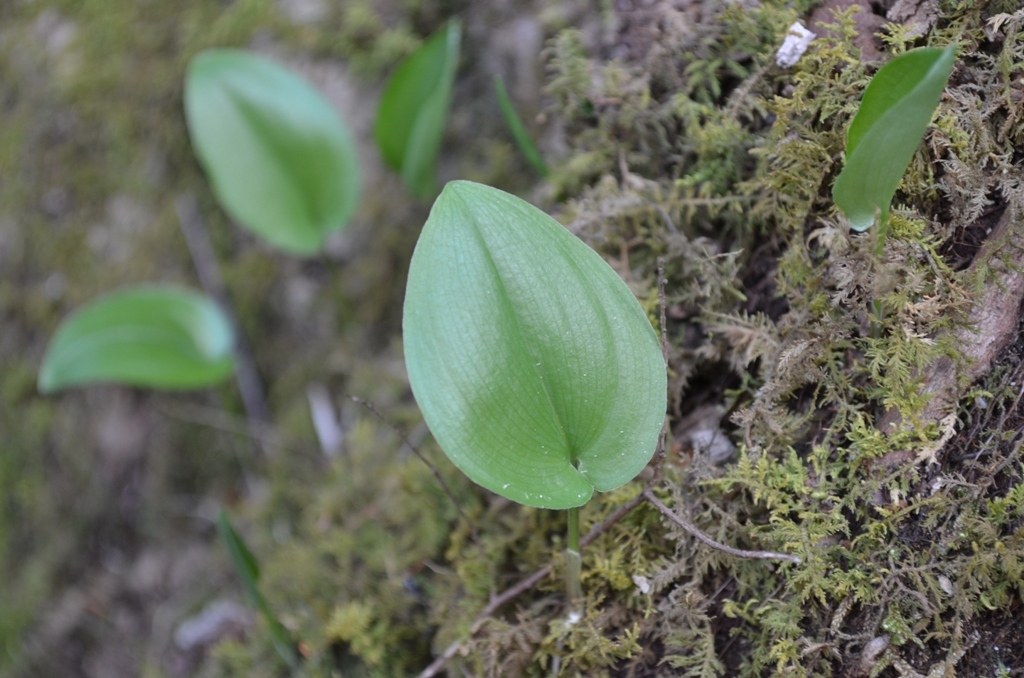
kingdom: Plantae
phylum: Tracheophyta
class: Liliopsida
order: Asparagales
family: Asparagaceae
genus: Maianthemum
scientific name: Maianthemum canadense
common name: False lily-of-the-valley
